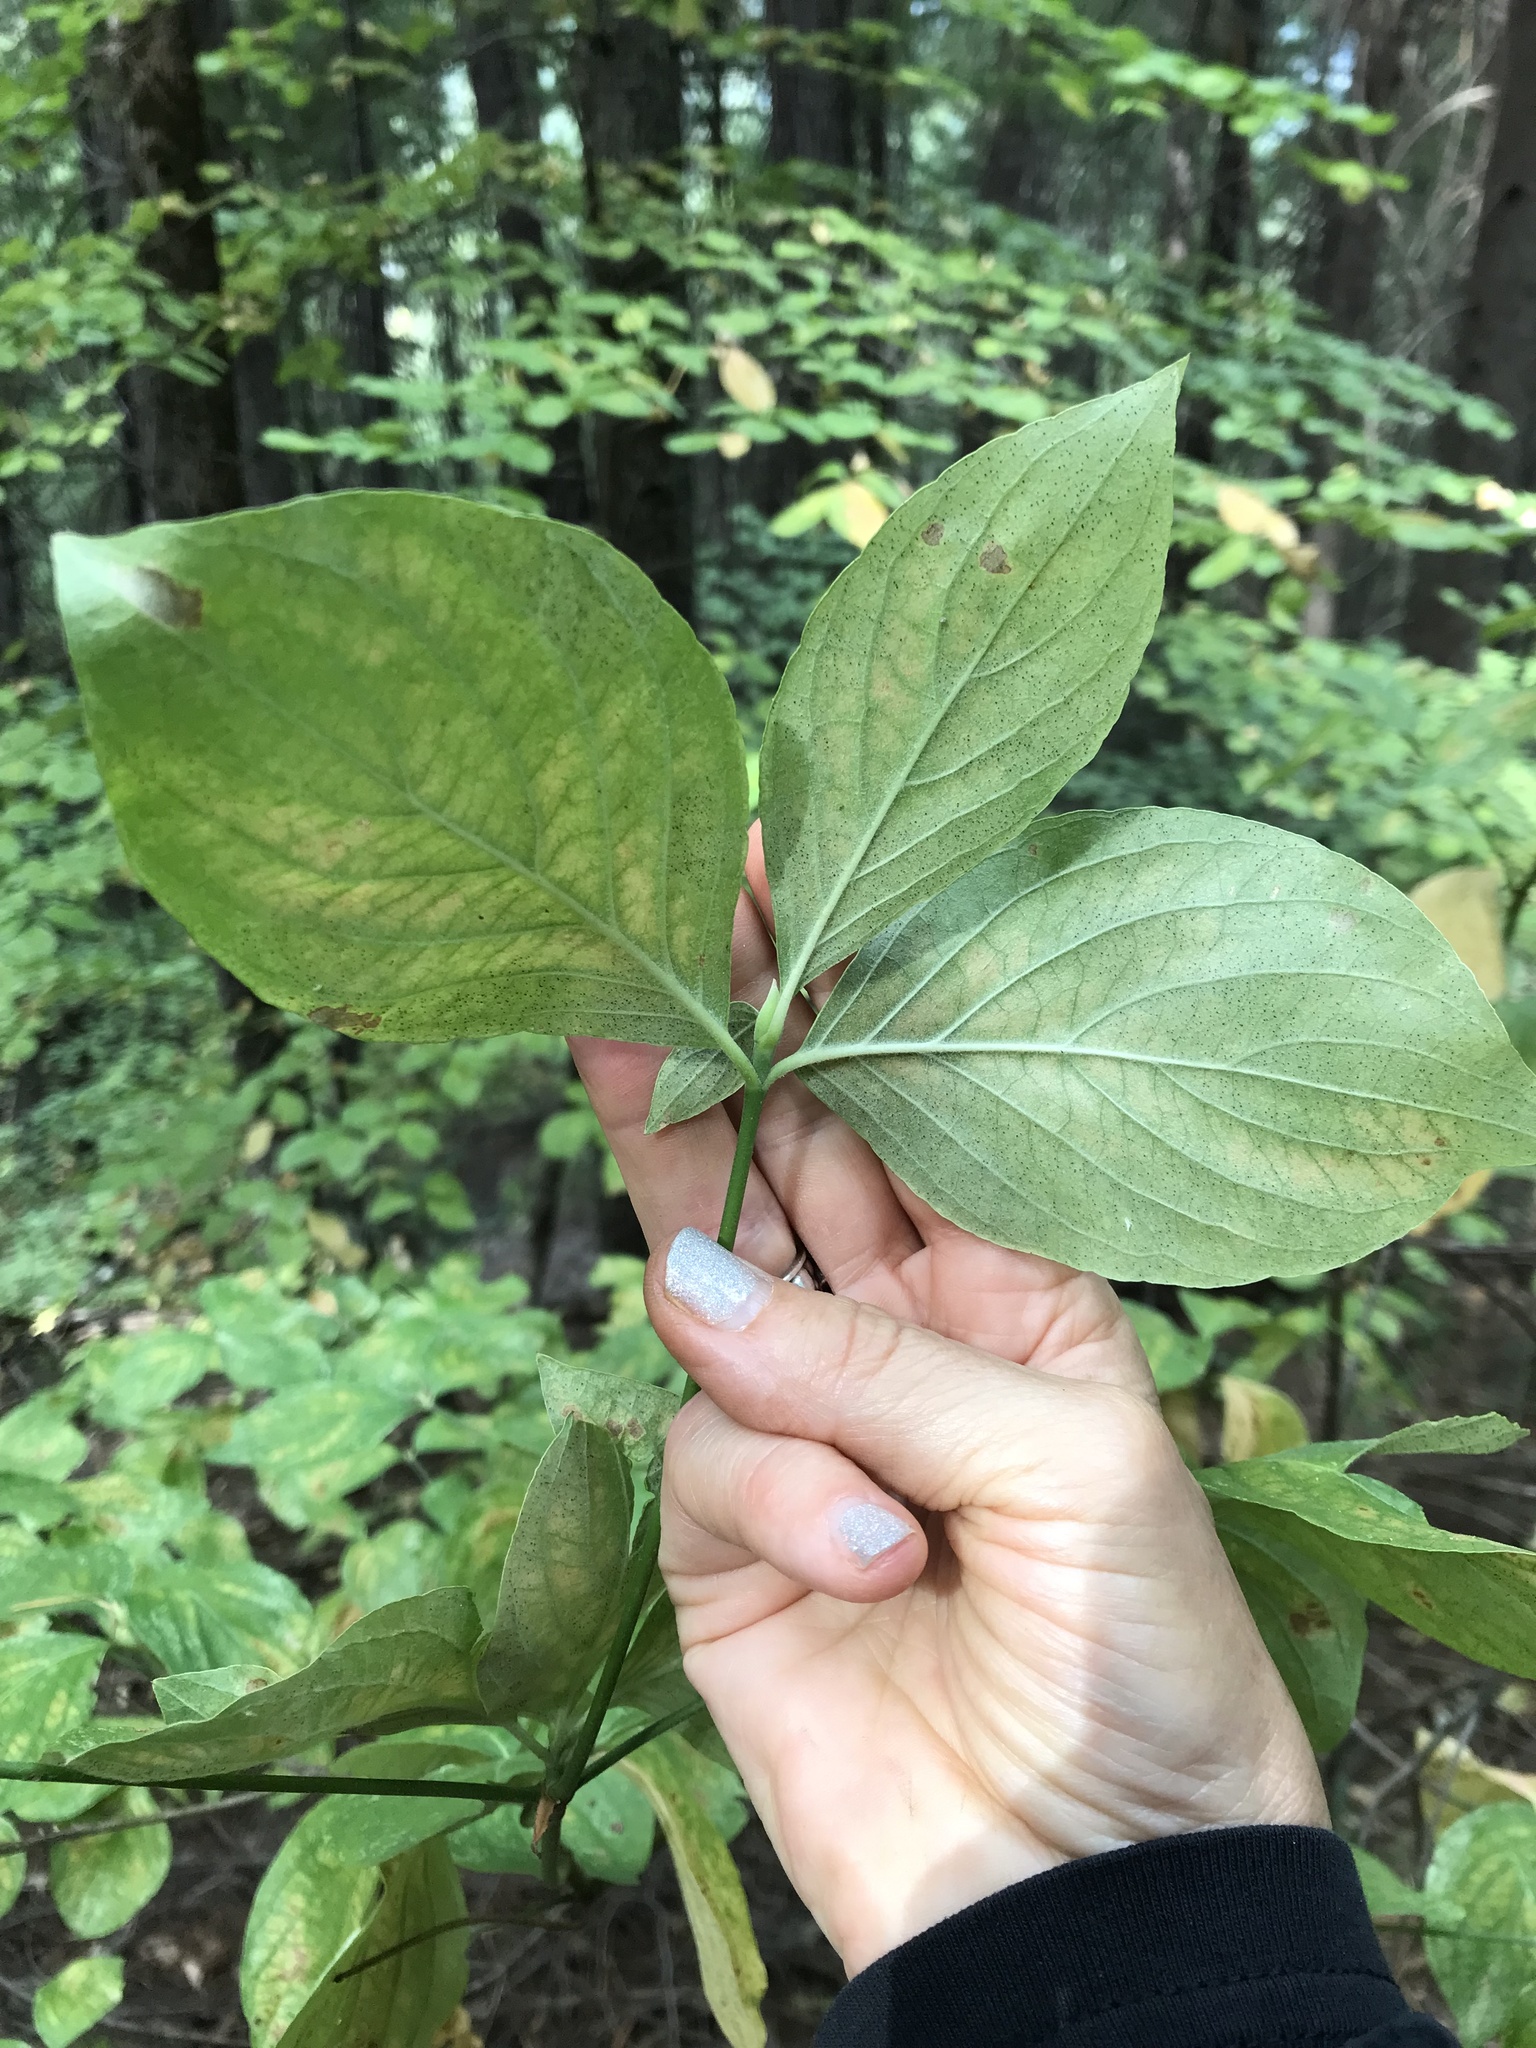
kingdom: Plantae
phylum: Tracheophyta
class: Magnoliopsida
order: Cornales
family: Cornaceae
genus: Cornus
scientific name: Cornus nuttallii
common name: Pacific dogwood
